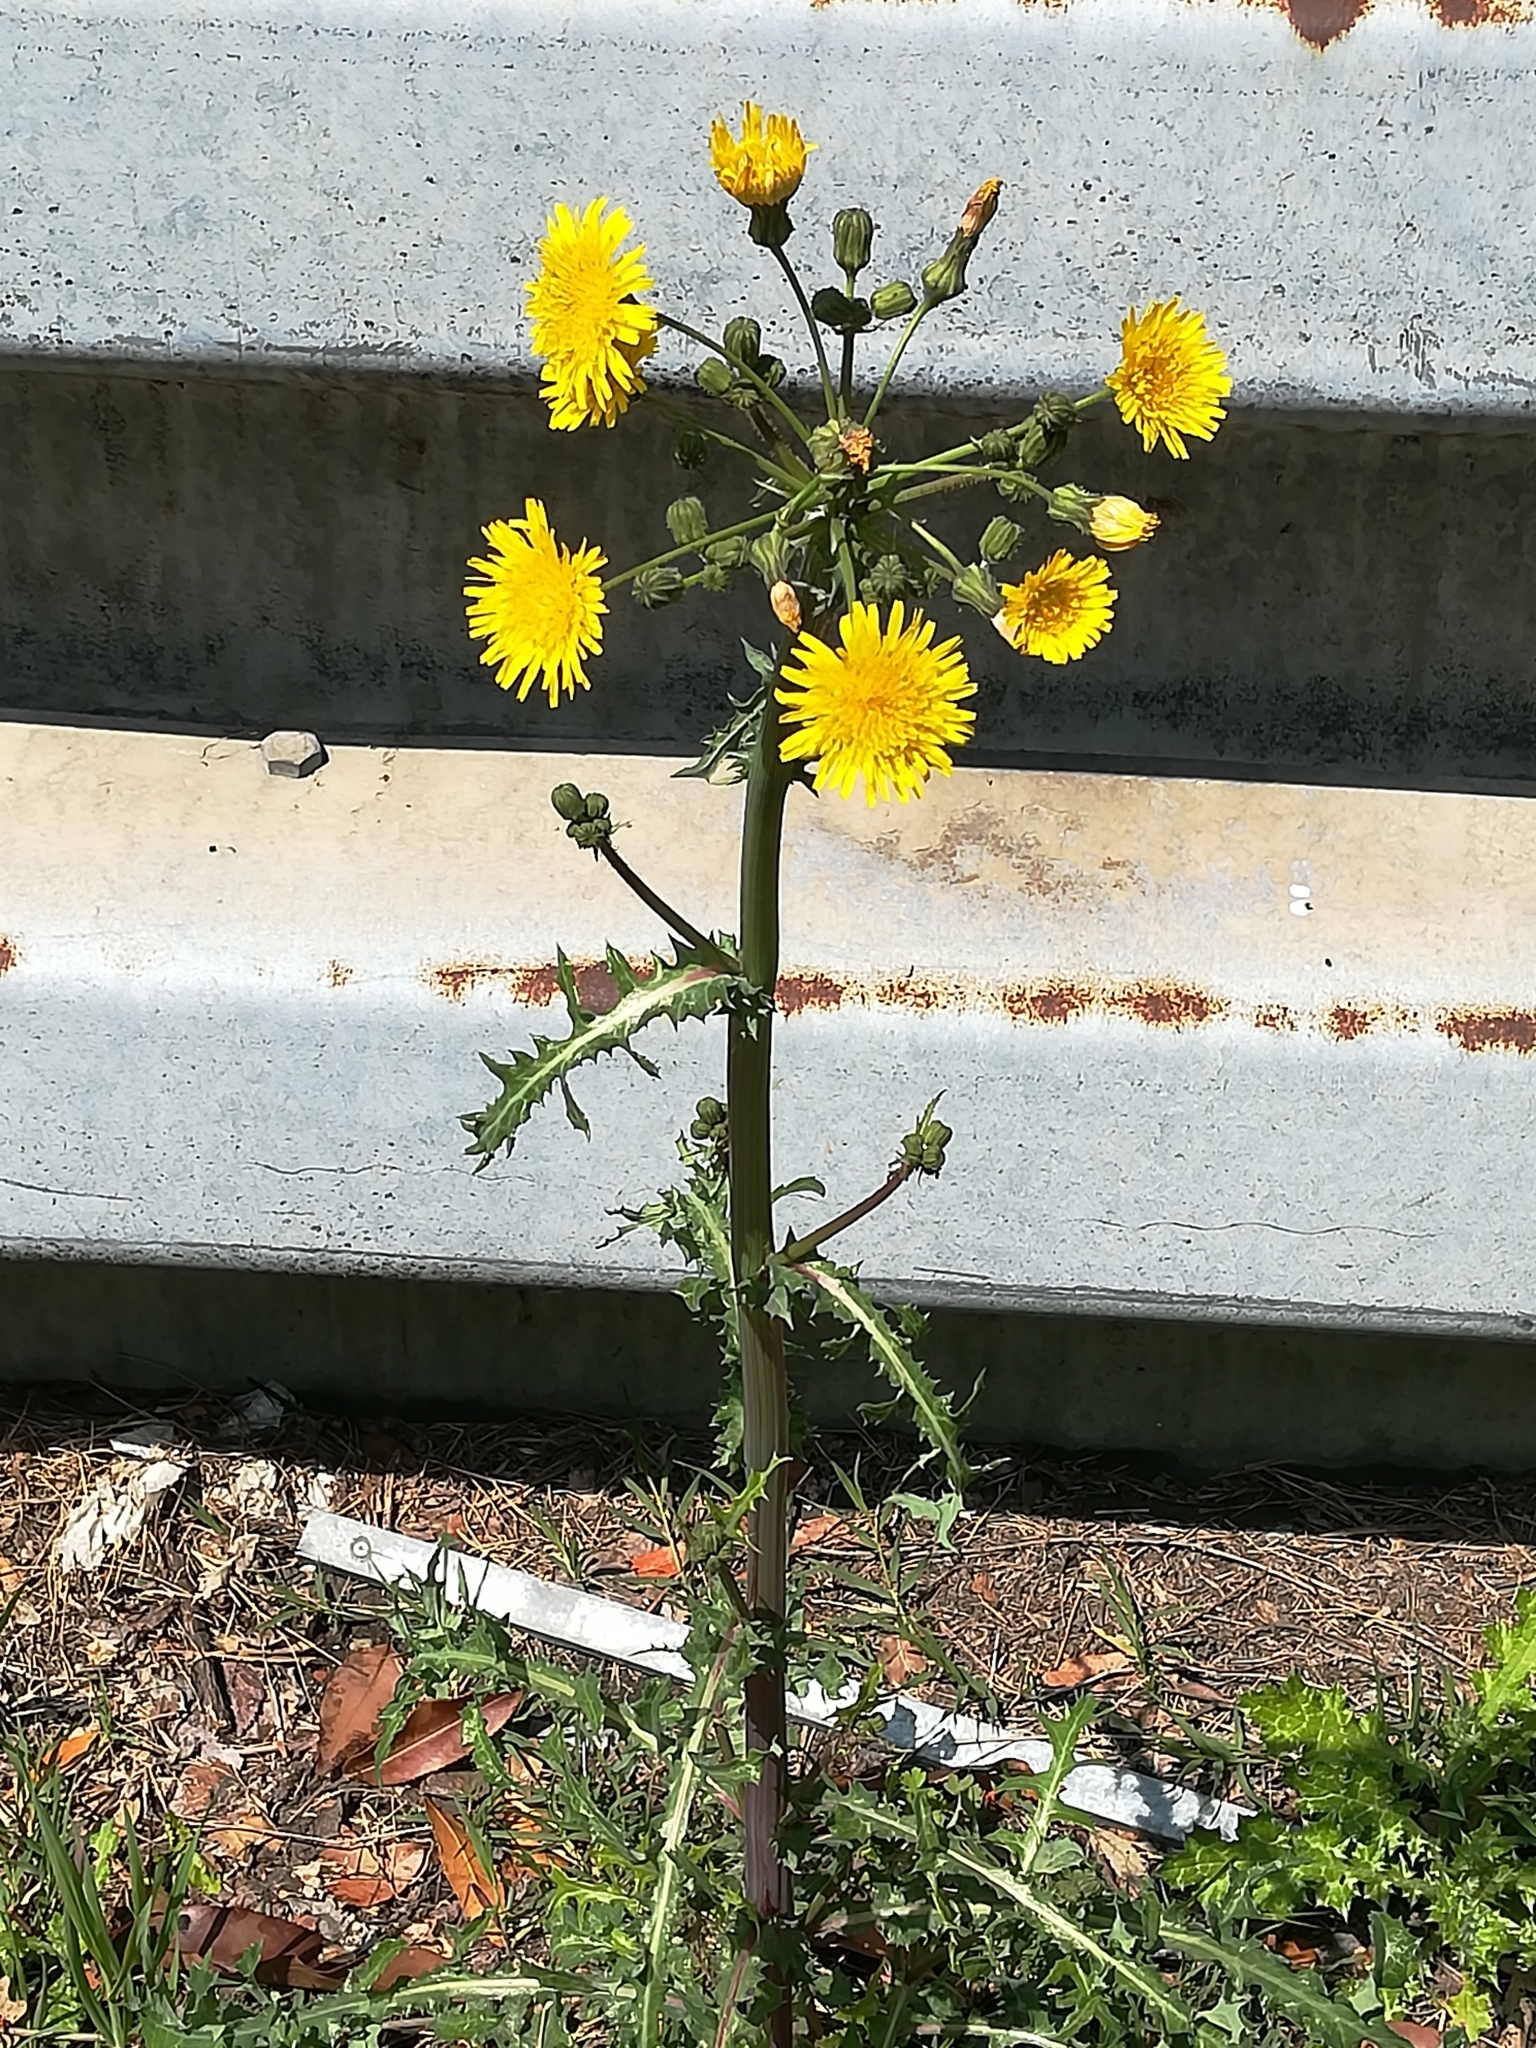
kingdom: Plantae
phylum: Tracheophyta
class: Magnoliopsida
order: Asterales
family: Asteraceae
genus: Sonchus
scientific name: Sonchus asper
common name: Prickly sow-thistle
